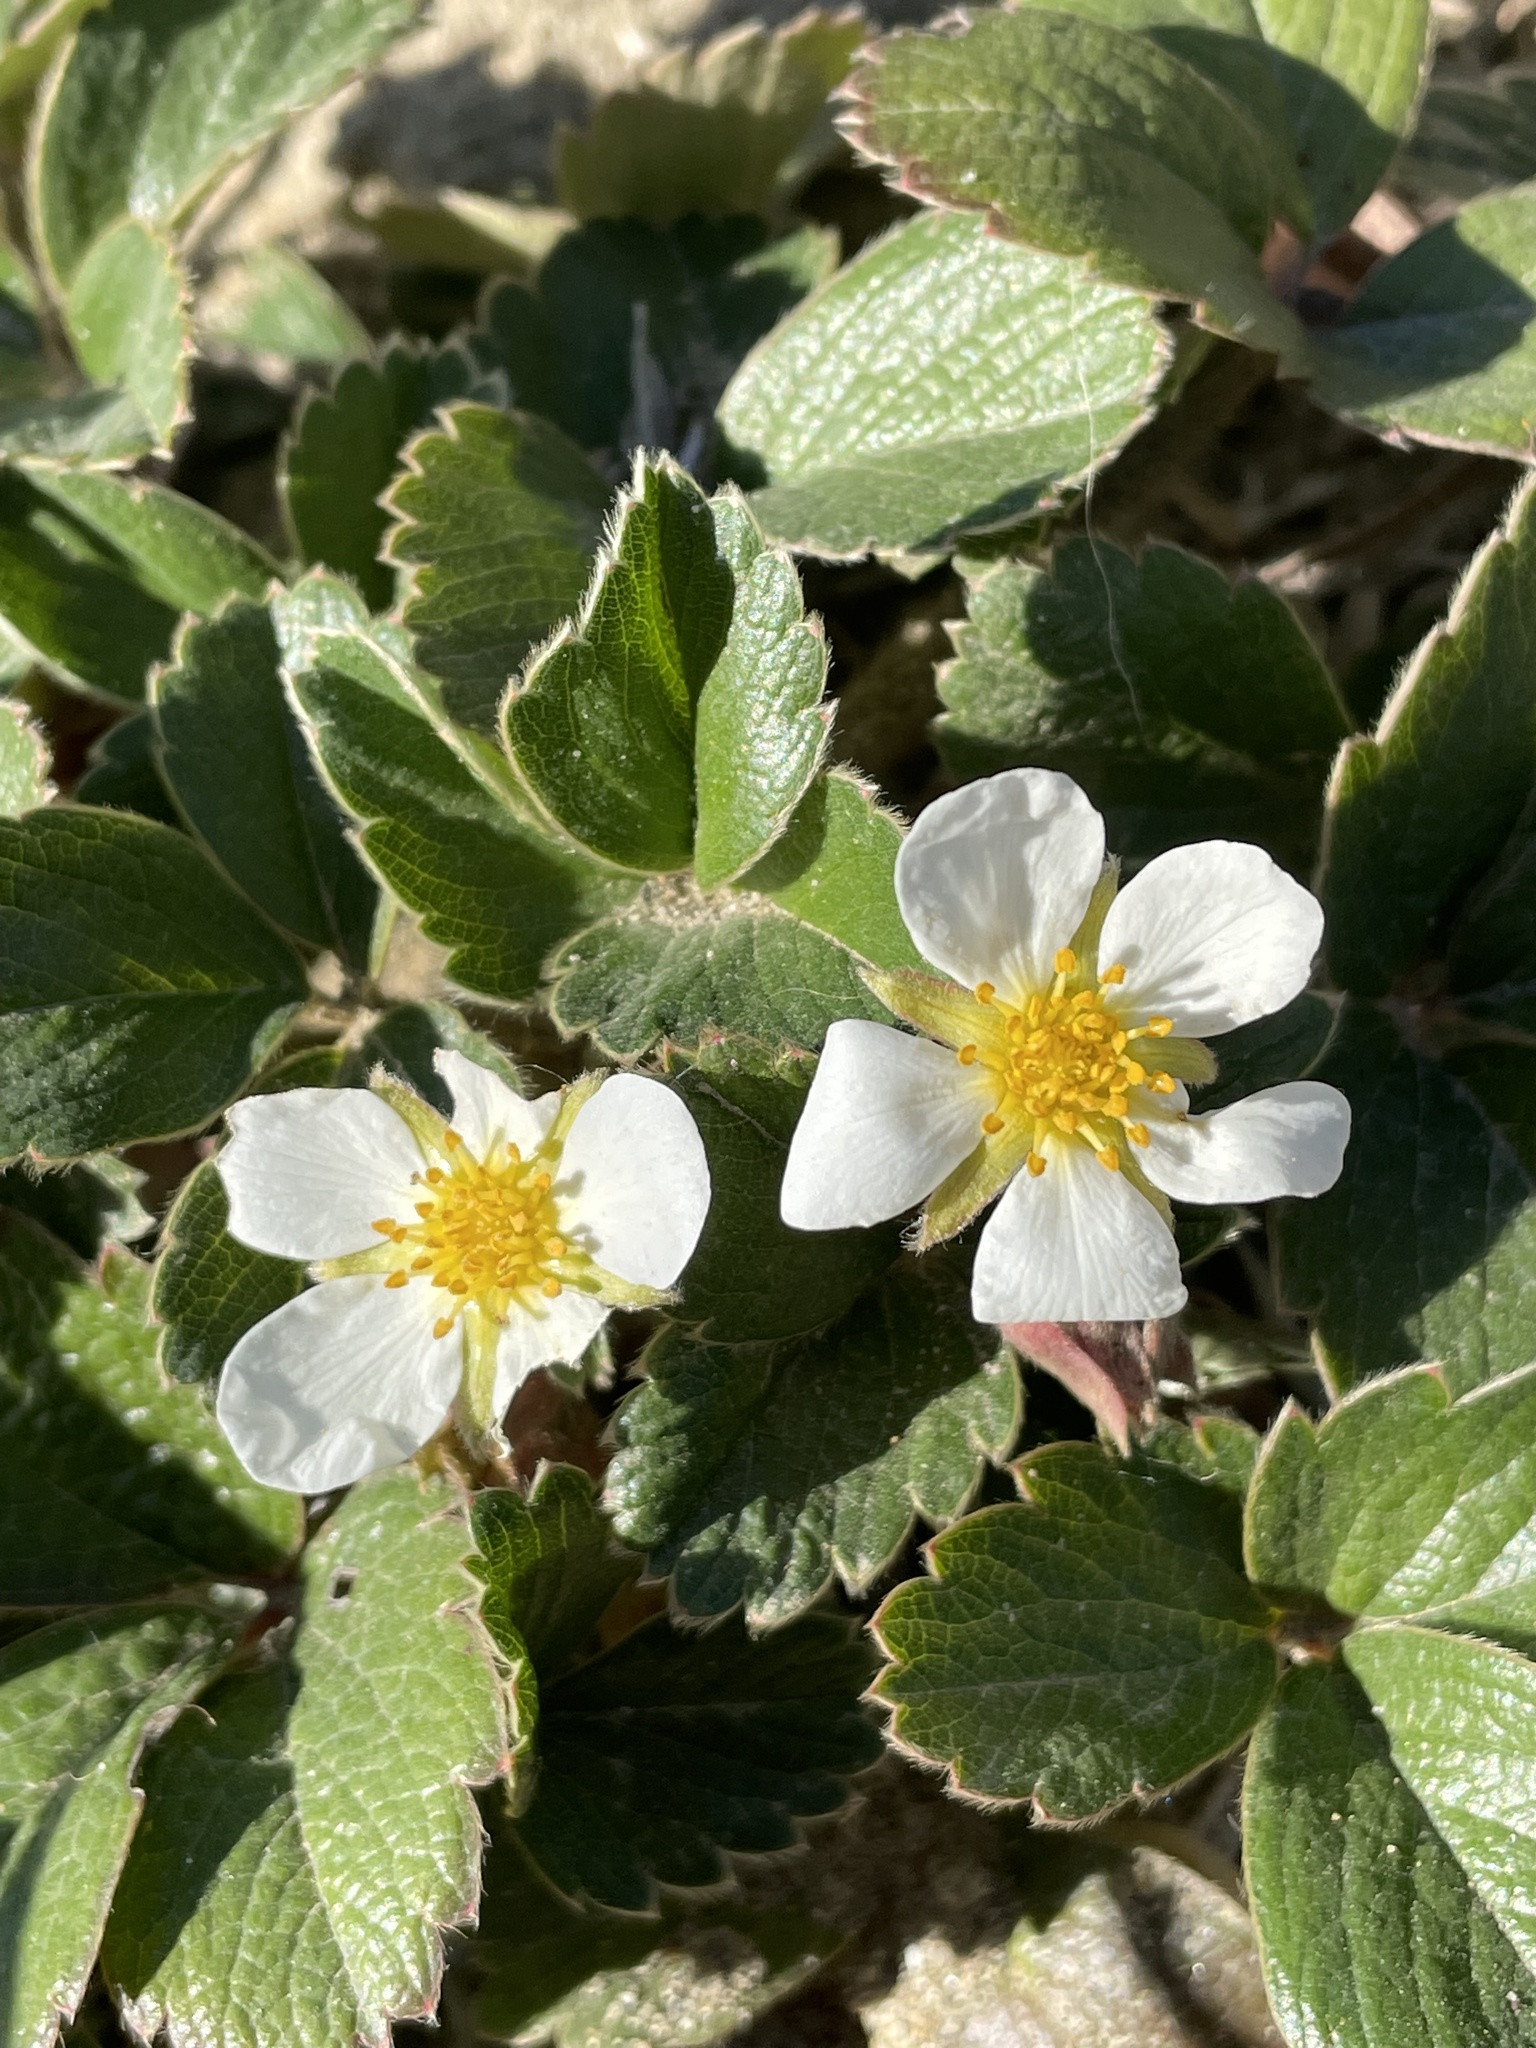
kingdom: Plantae
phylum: Tracheophyta
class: Magnoliopsida
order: Rosales
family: Rosaceae
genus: Fragaria
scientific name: Fragaria chiloensis
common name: Beach strawberry
